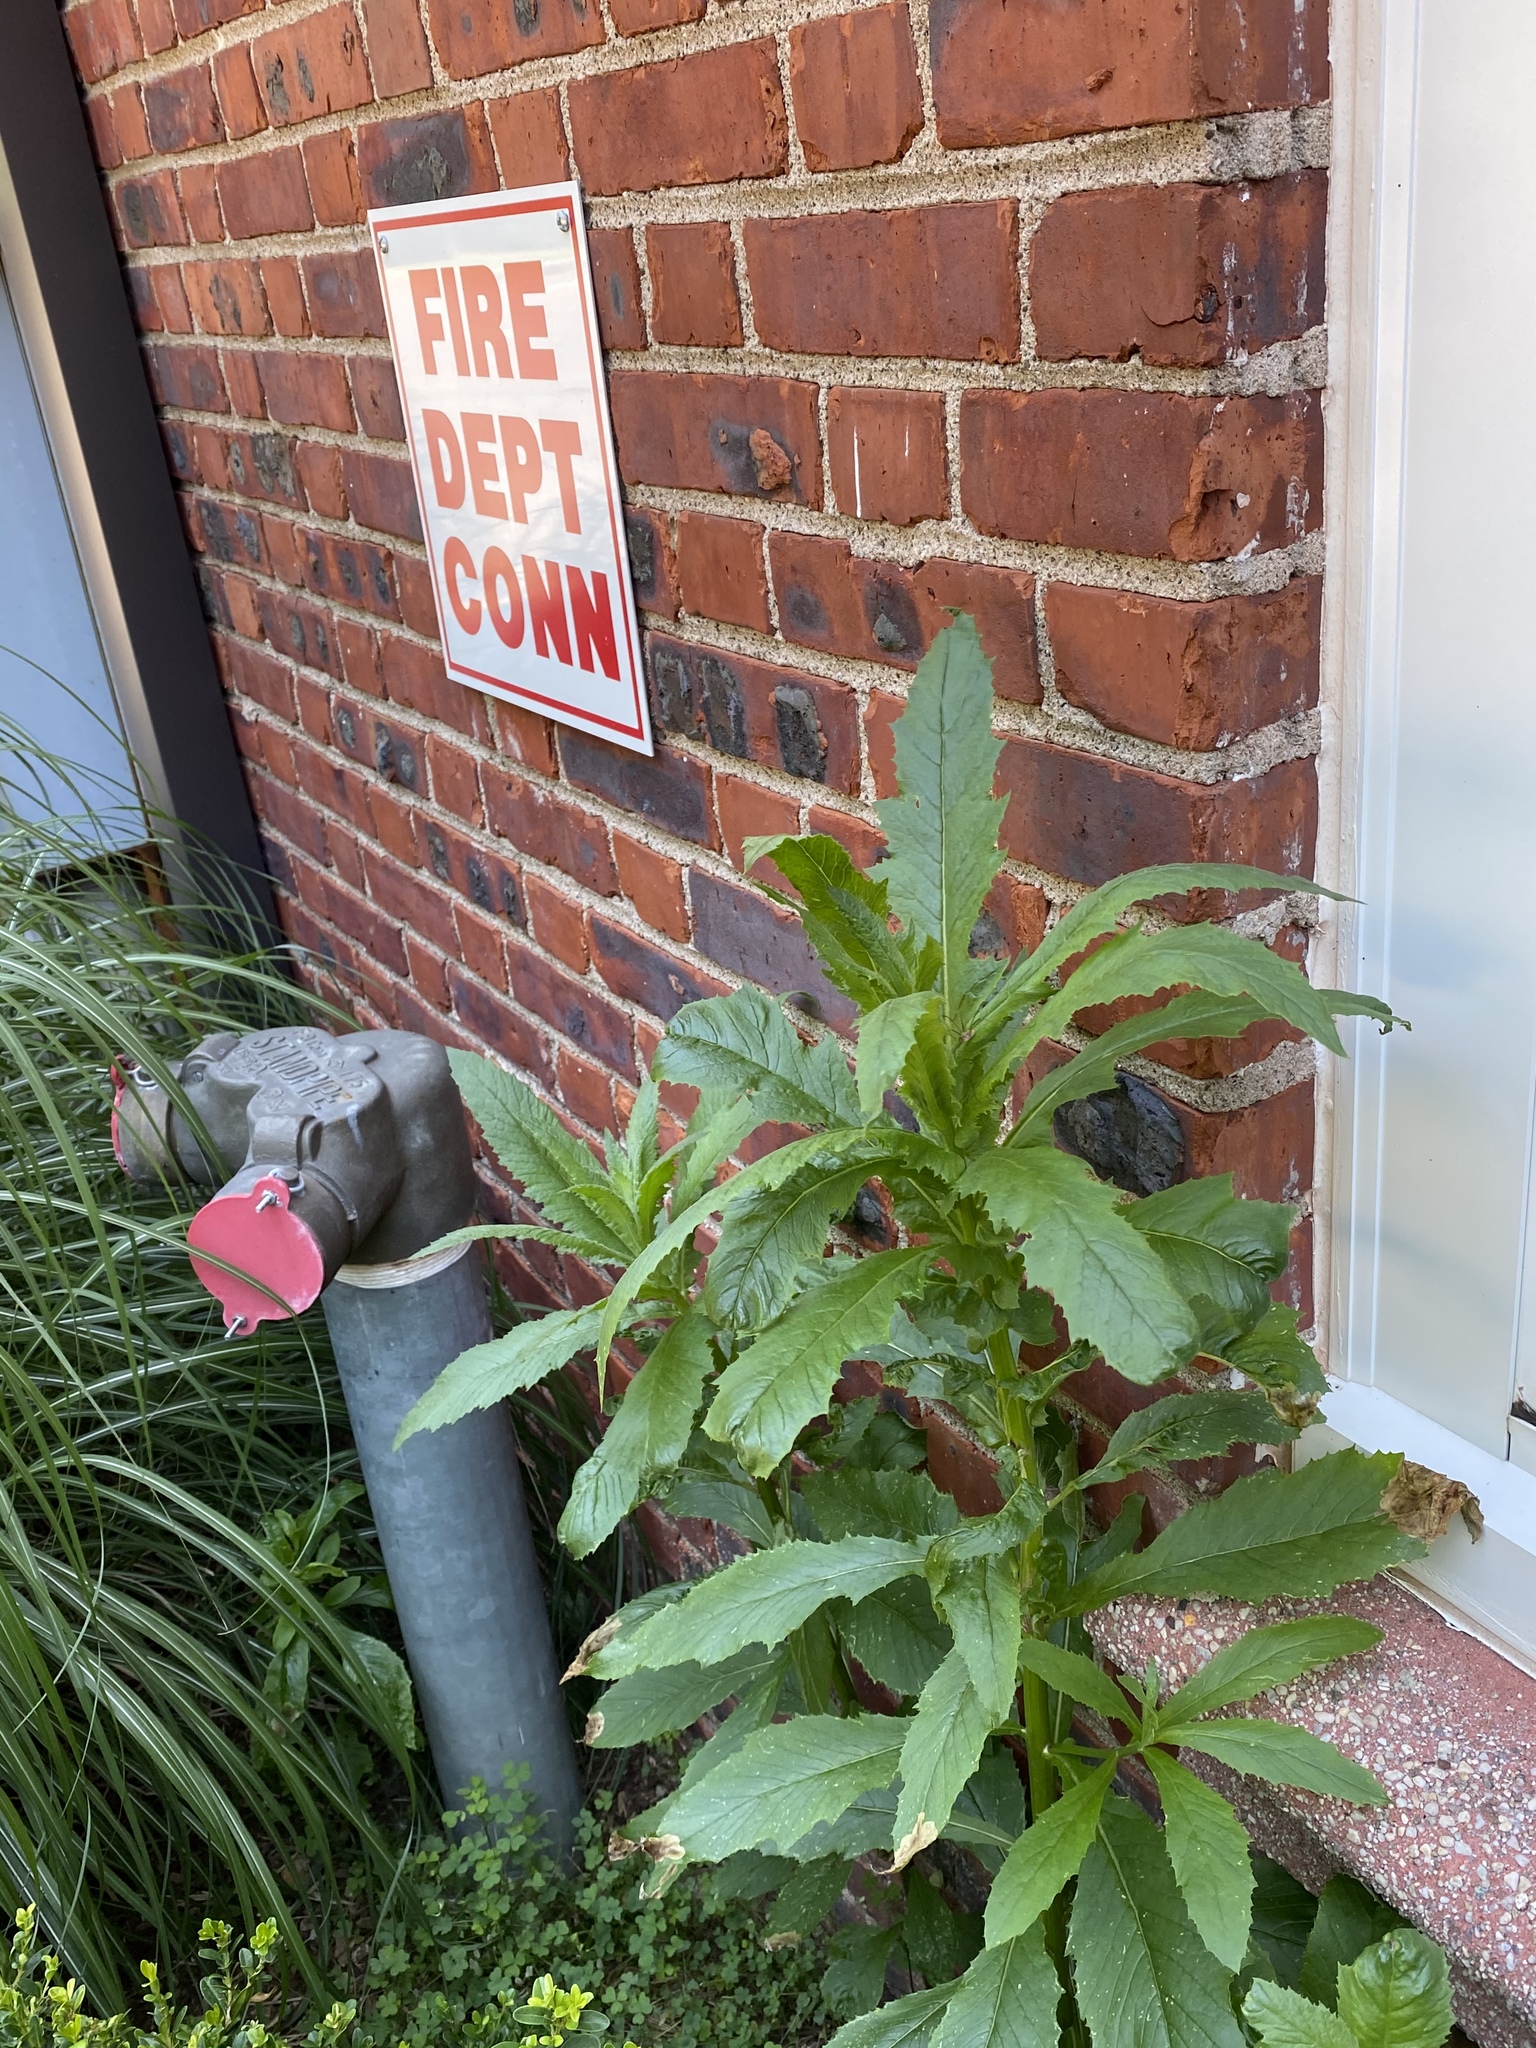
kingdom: Plantae
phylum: Tracheophyta
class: Magnoliopsida
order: Asterales
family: Asteraceae
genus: Erechtites
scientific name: Erechtites hieraciifolius
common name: American burnweed
